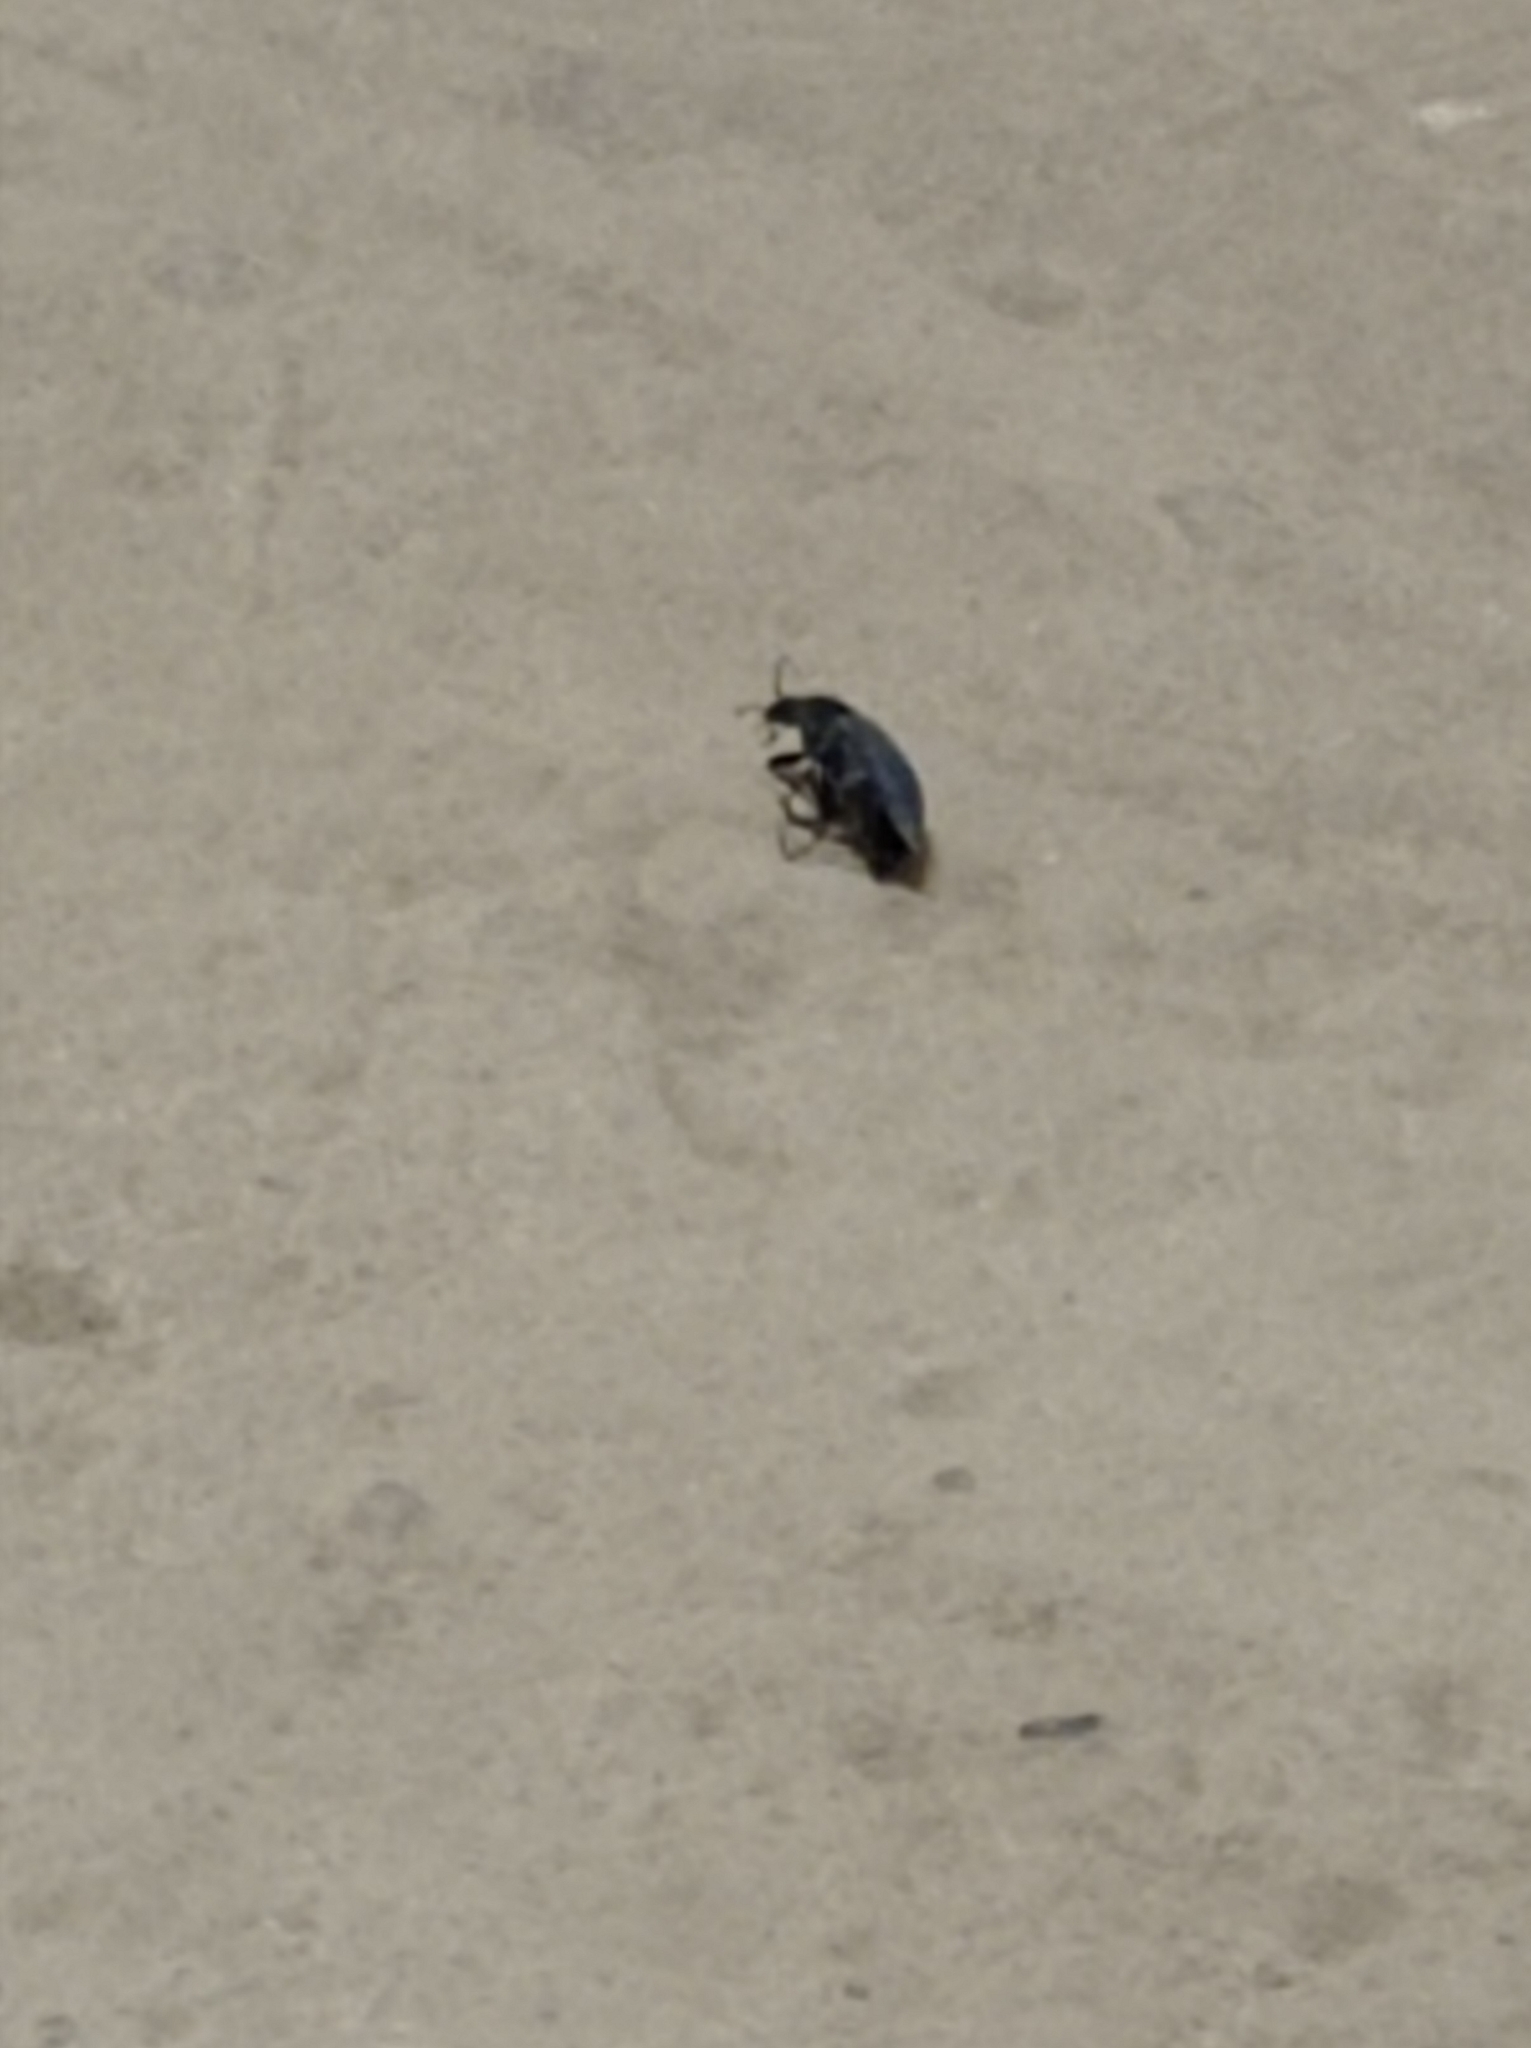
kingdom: Animalia
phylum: Arthropoda
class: Insecta
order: Coleoptera
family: Carabidae
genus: Carabus
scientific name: Carabus
